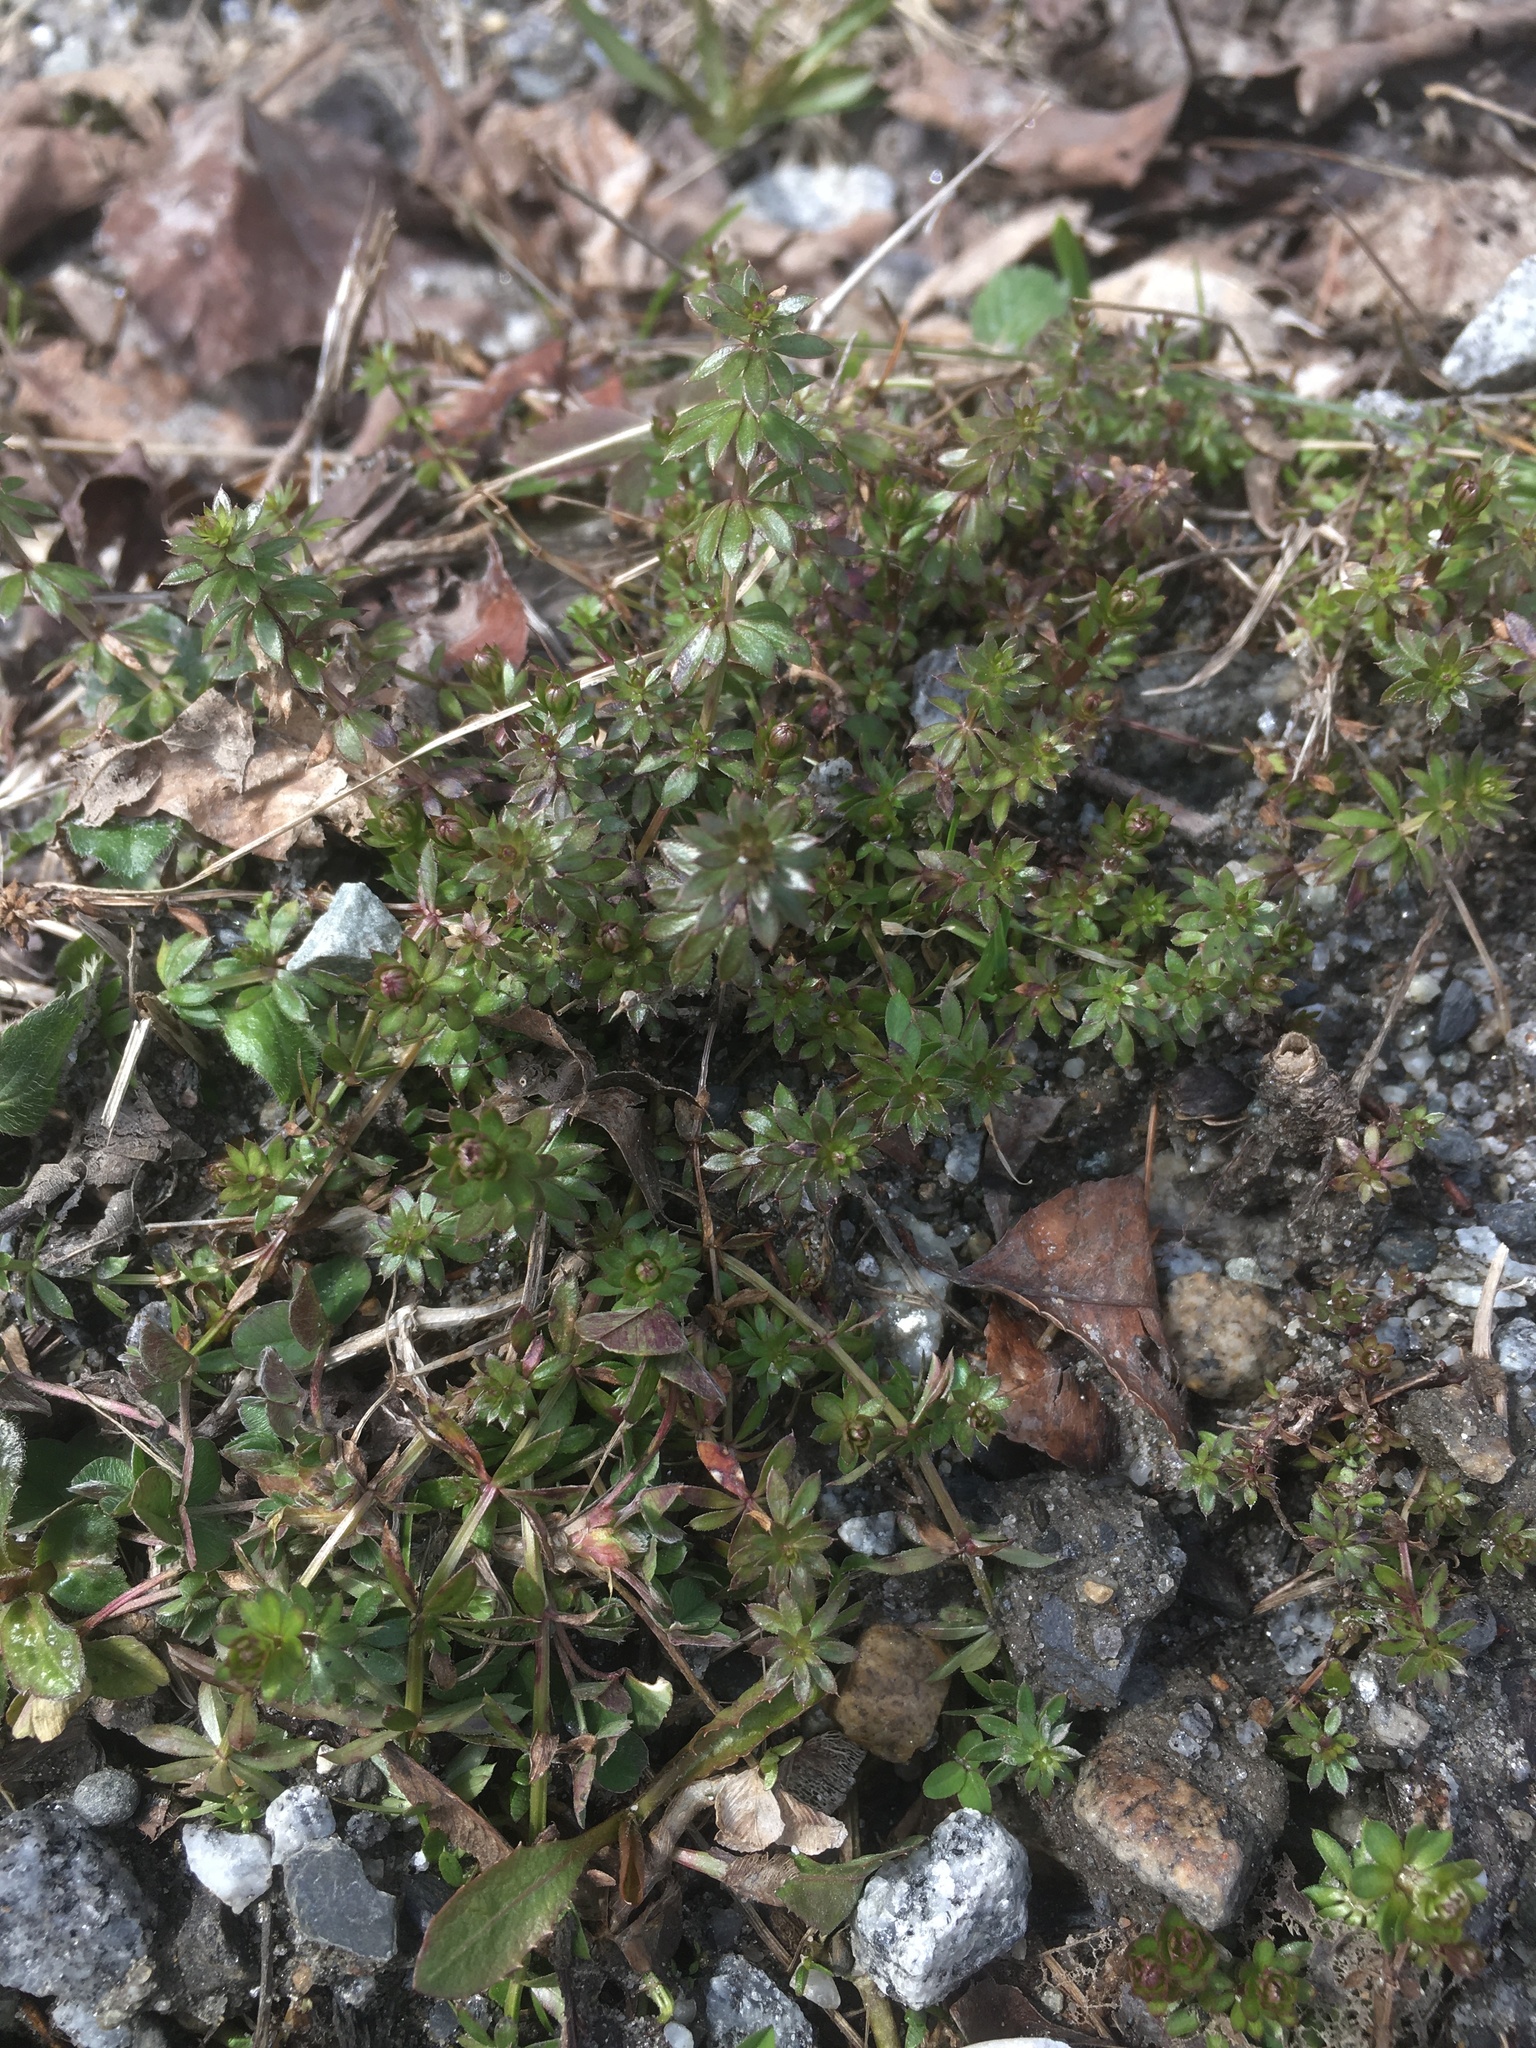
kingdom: Plantae
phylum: Tracheophyta
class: Magnoliopsida
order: Gentianales
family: Rubiaceae
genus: Galium
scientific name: Galium mollugo
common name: Hedge bedstraw
